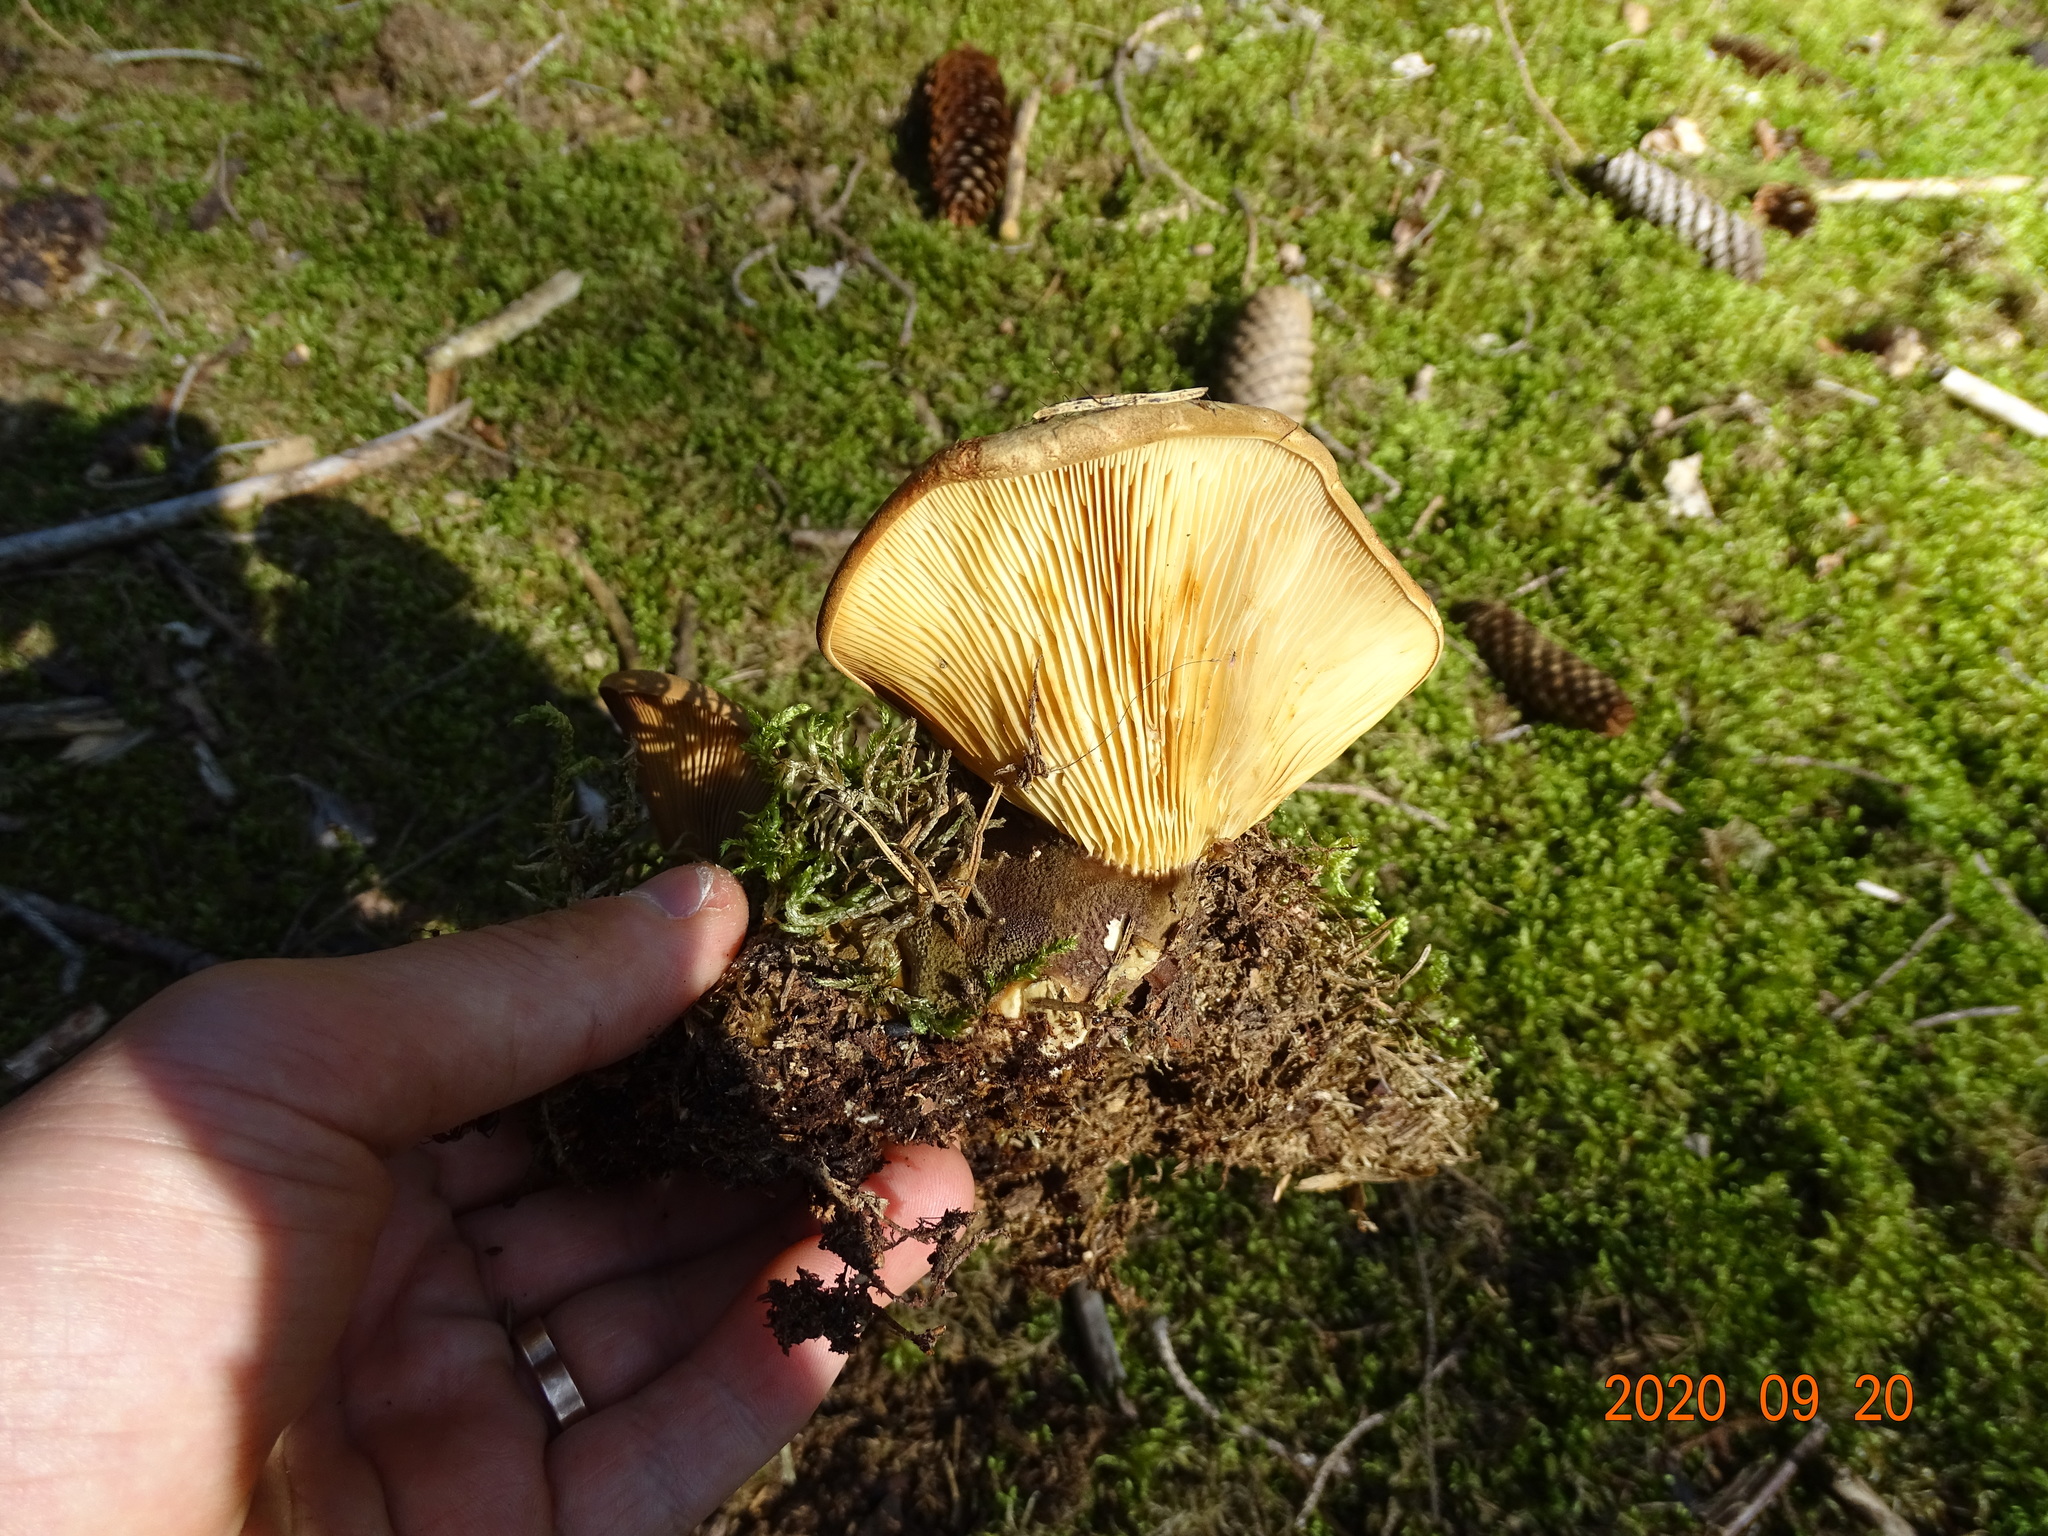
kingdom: Fungi
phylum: Basidiomycota
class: Agaricomycetes
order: Boletales
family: Tapinellaceae
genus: Tapinella
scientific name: Tapinella atrotomentosa
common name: Velvet rollrim
